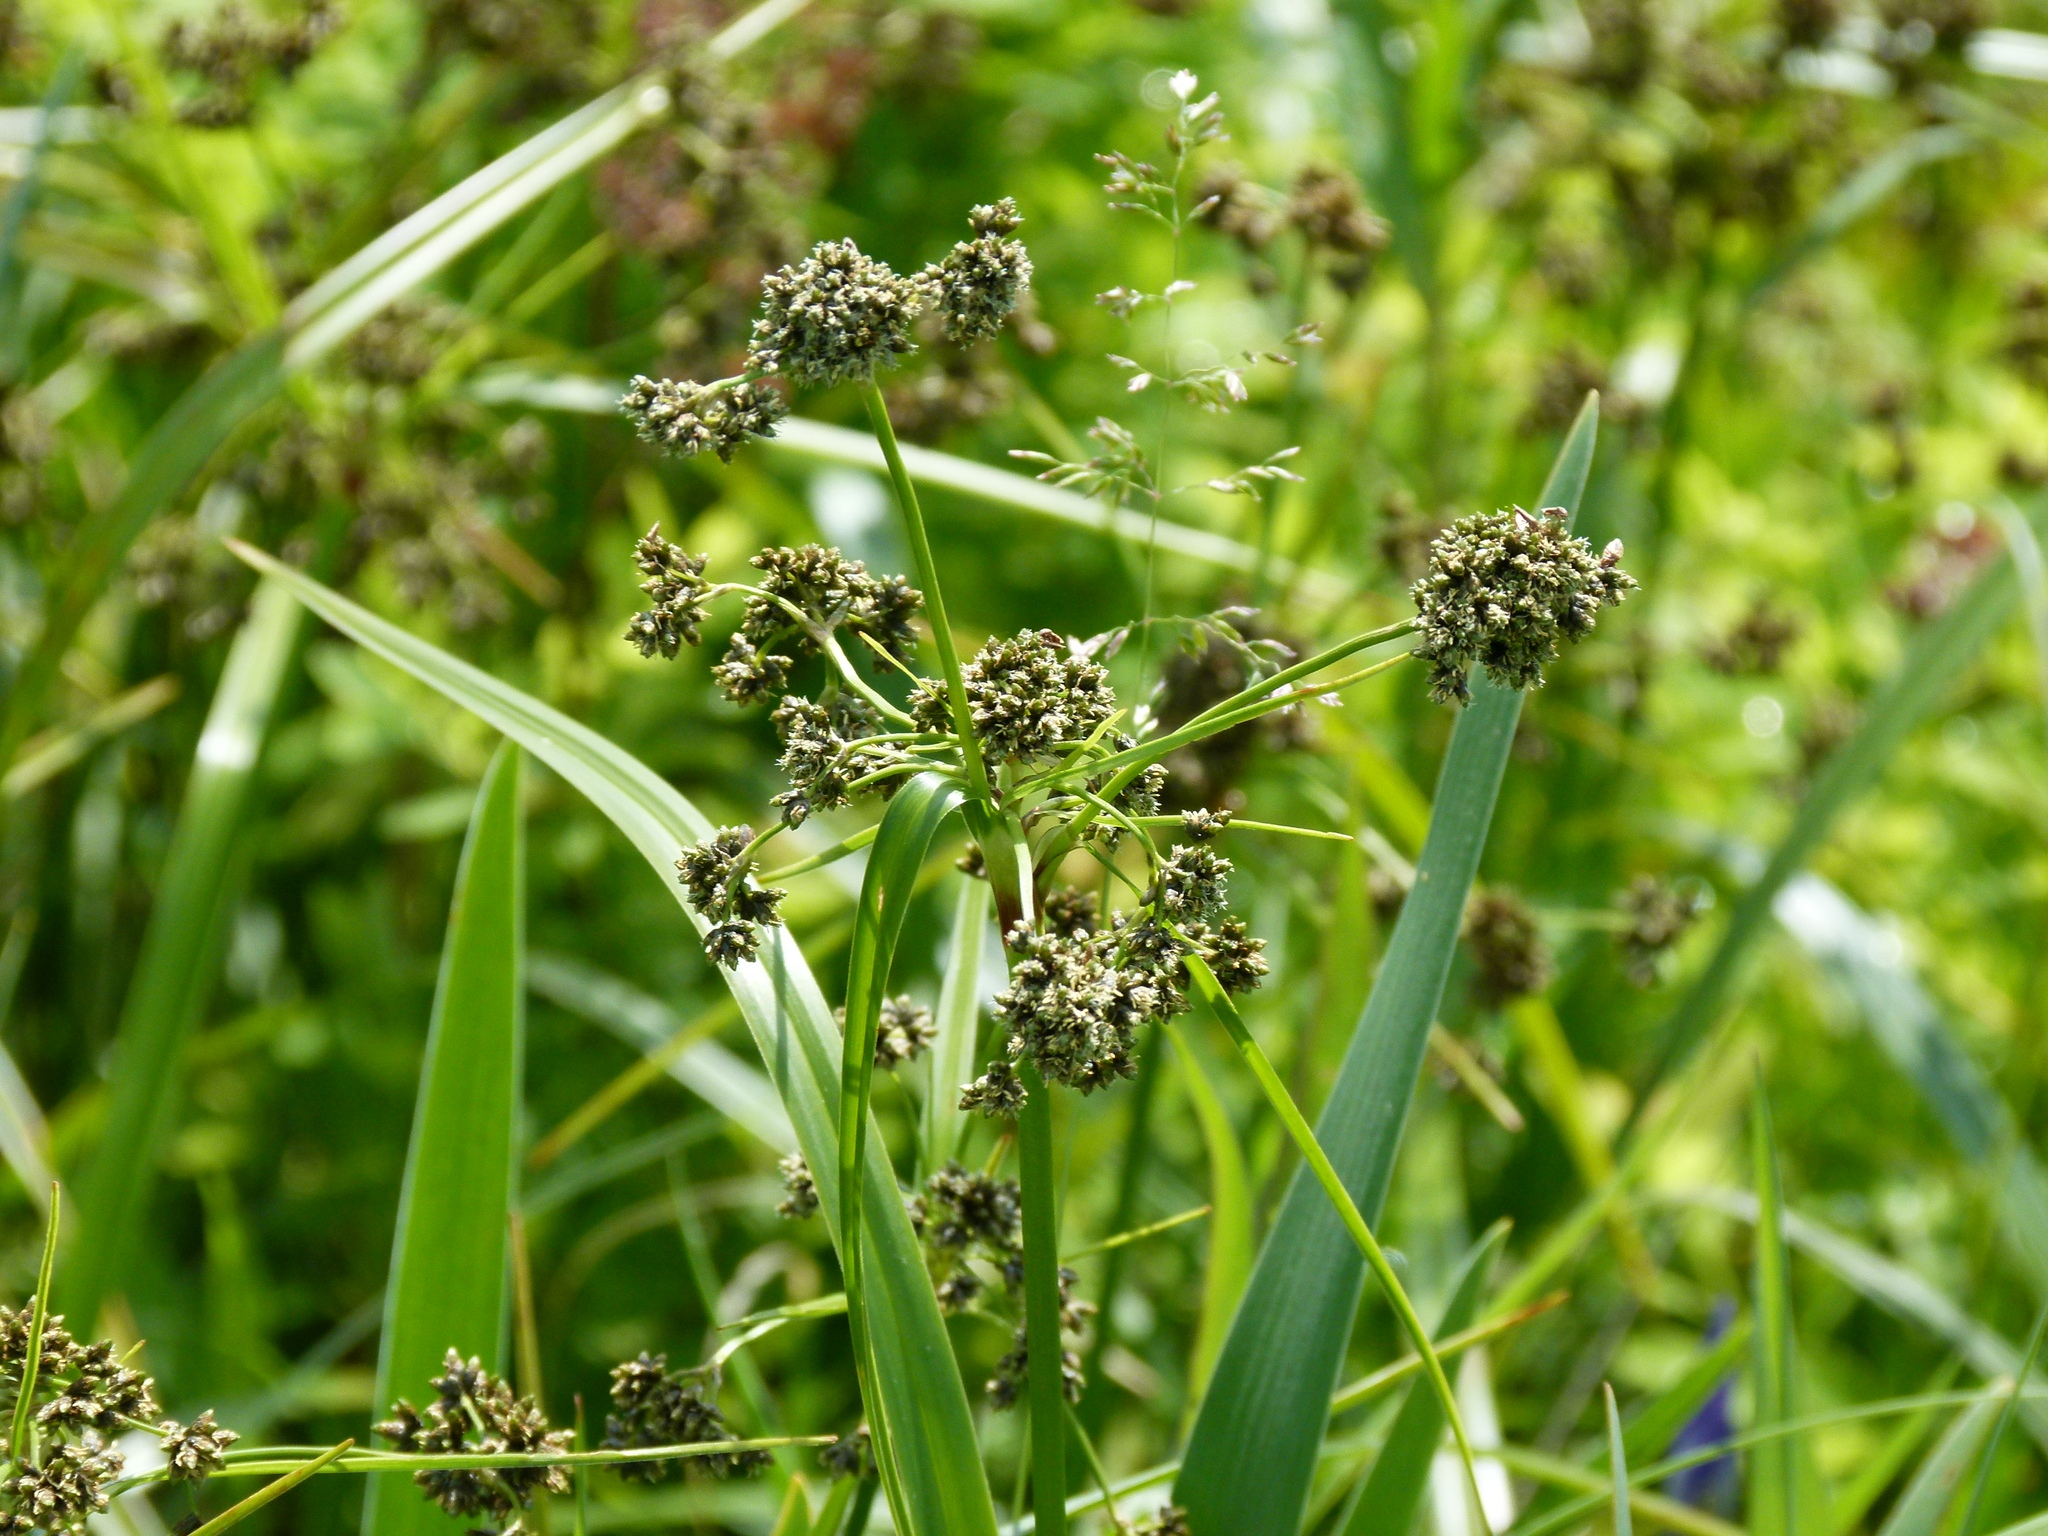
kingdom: Plantae
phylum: Tracheophyta
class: Liliopsida
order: Poales
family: Cyperaceae
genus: Scirpus
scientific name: Scirpus atrovirens
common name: Black bulrush
